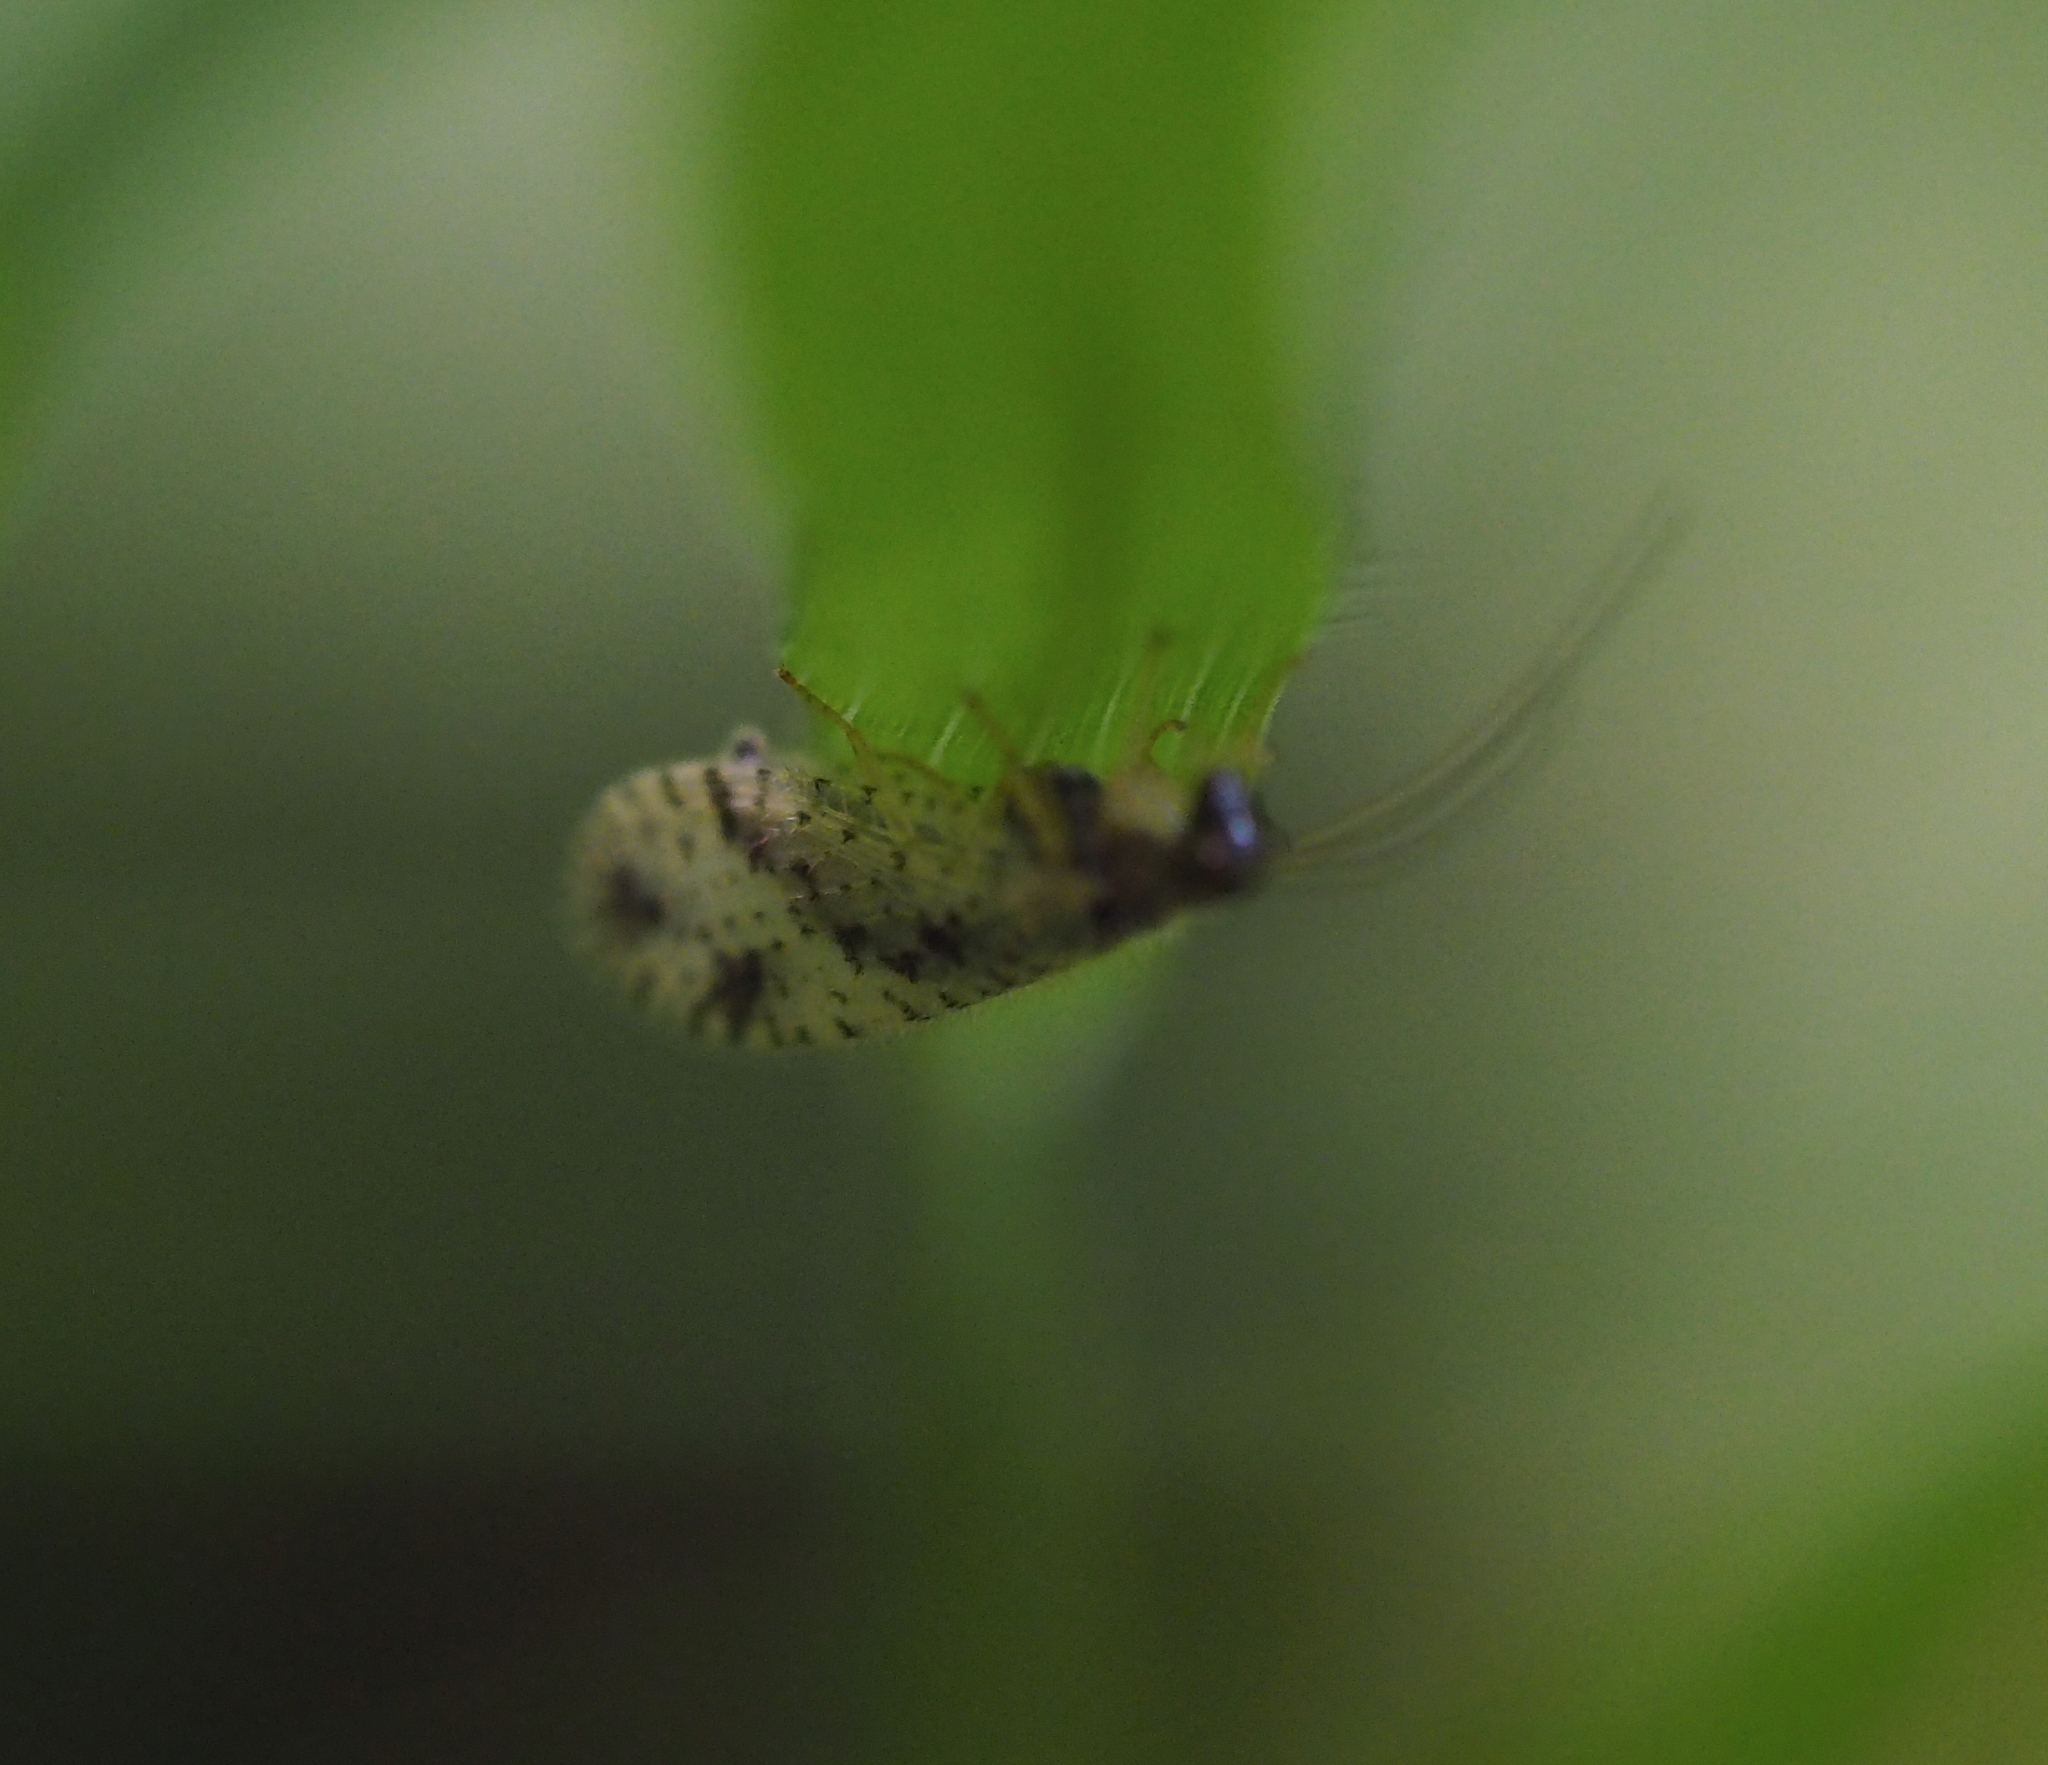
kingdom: Animalia
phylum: Arthropoda
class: Insecta
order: Neuroptera
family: Hemerobiidae
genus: Micromus
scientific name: Micromus variegatus
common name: Brown lacewing
